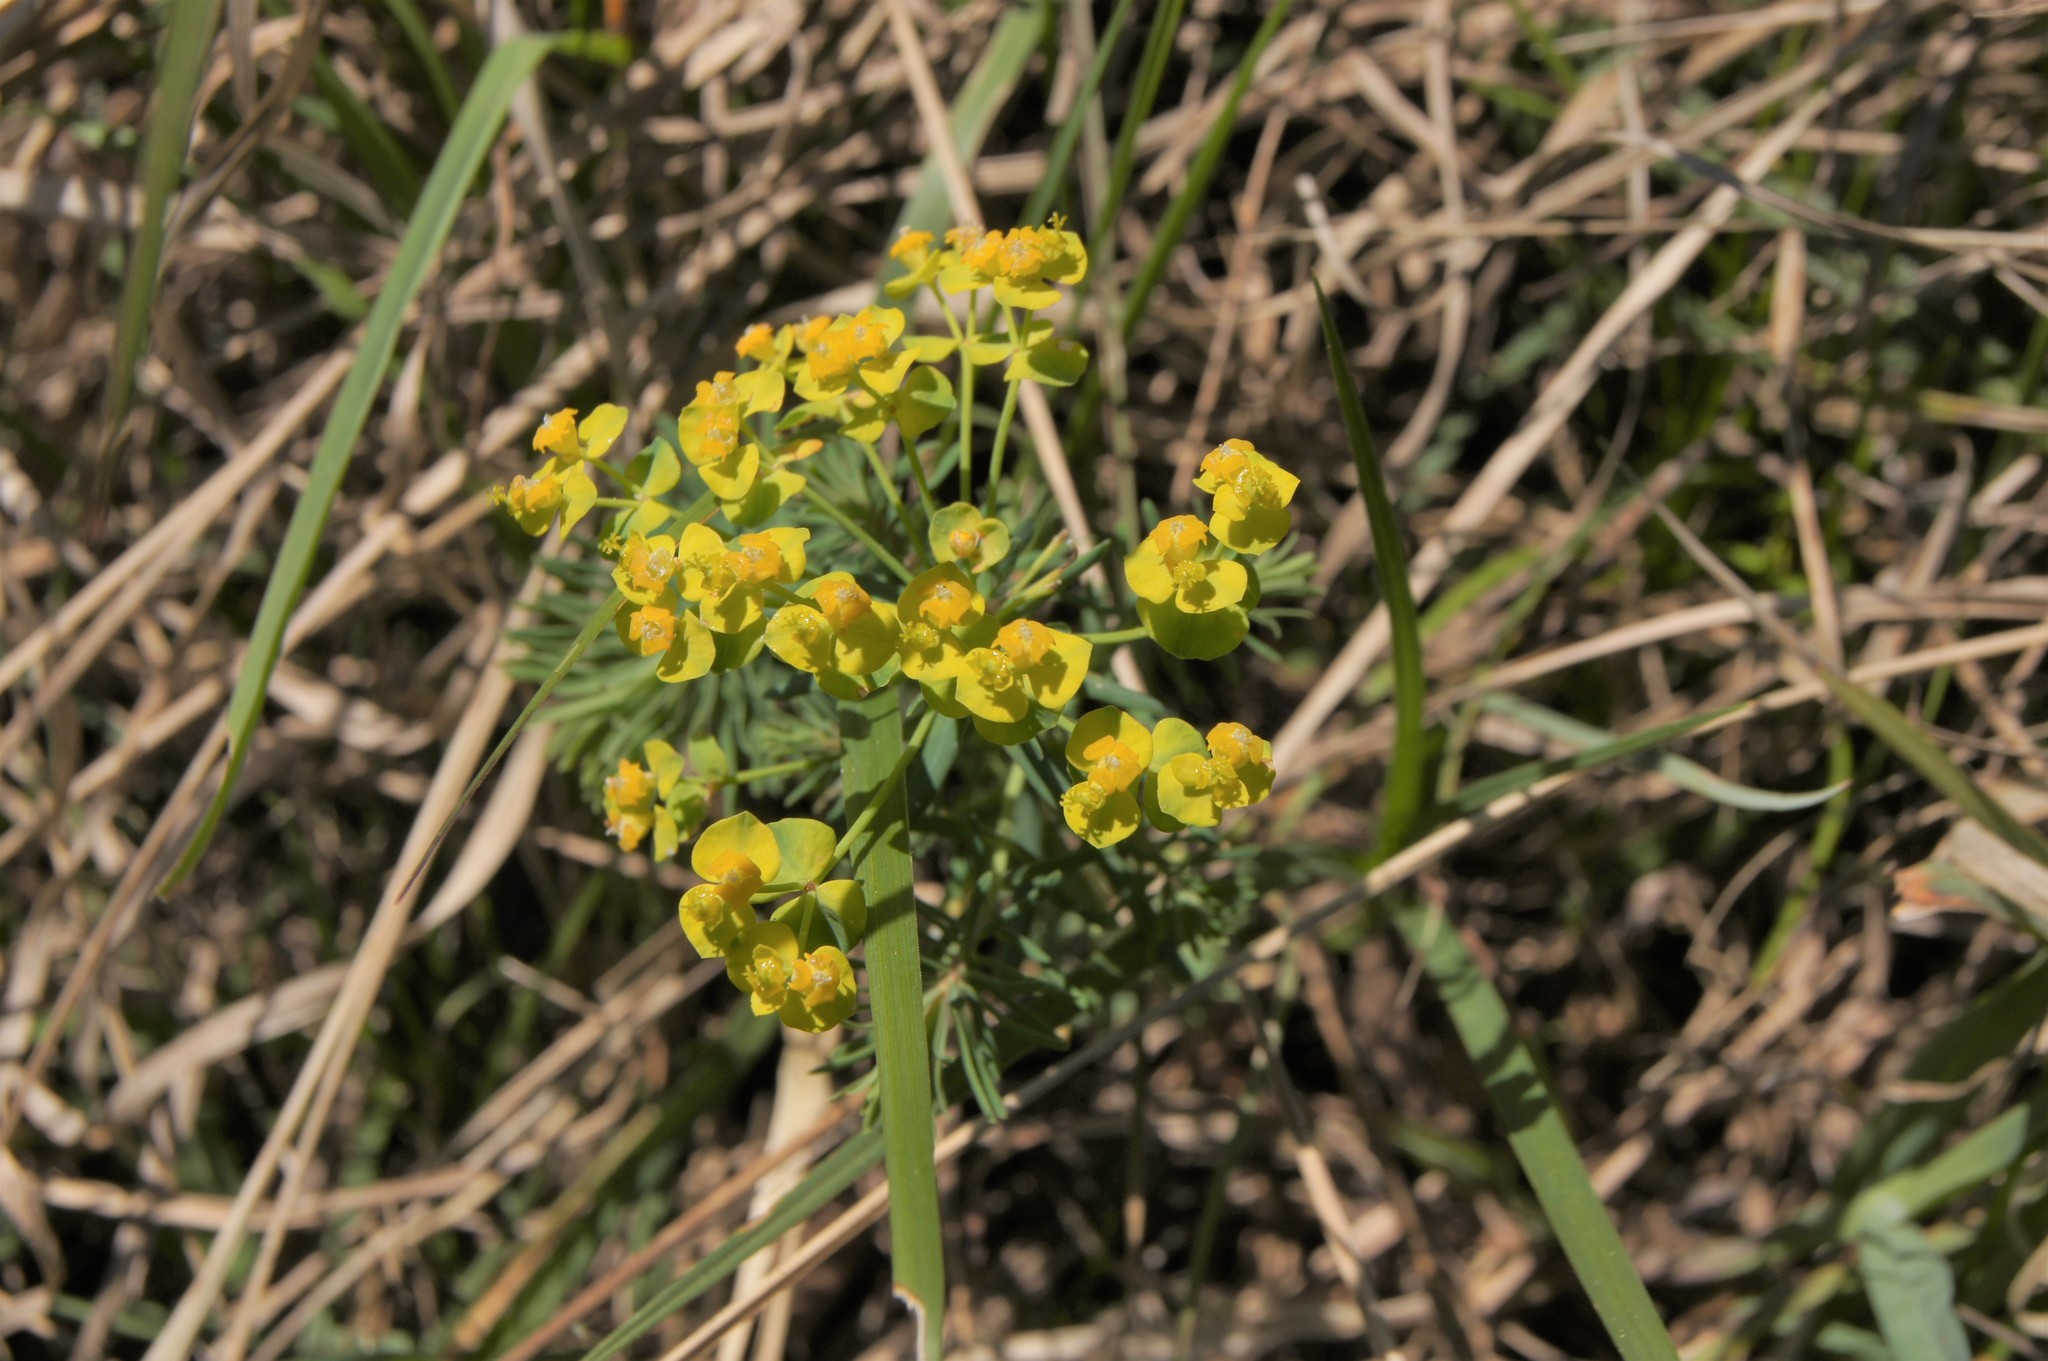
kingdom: Plantae
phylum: Tracheophyta
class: Magnoliopsida
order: Malpighiales
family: Euphorbiaceae
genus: Euphorbia
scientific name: Euphorbia cyparissias
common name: Cypress spurge
